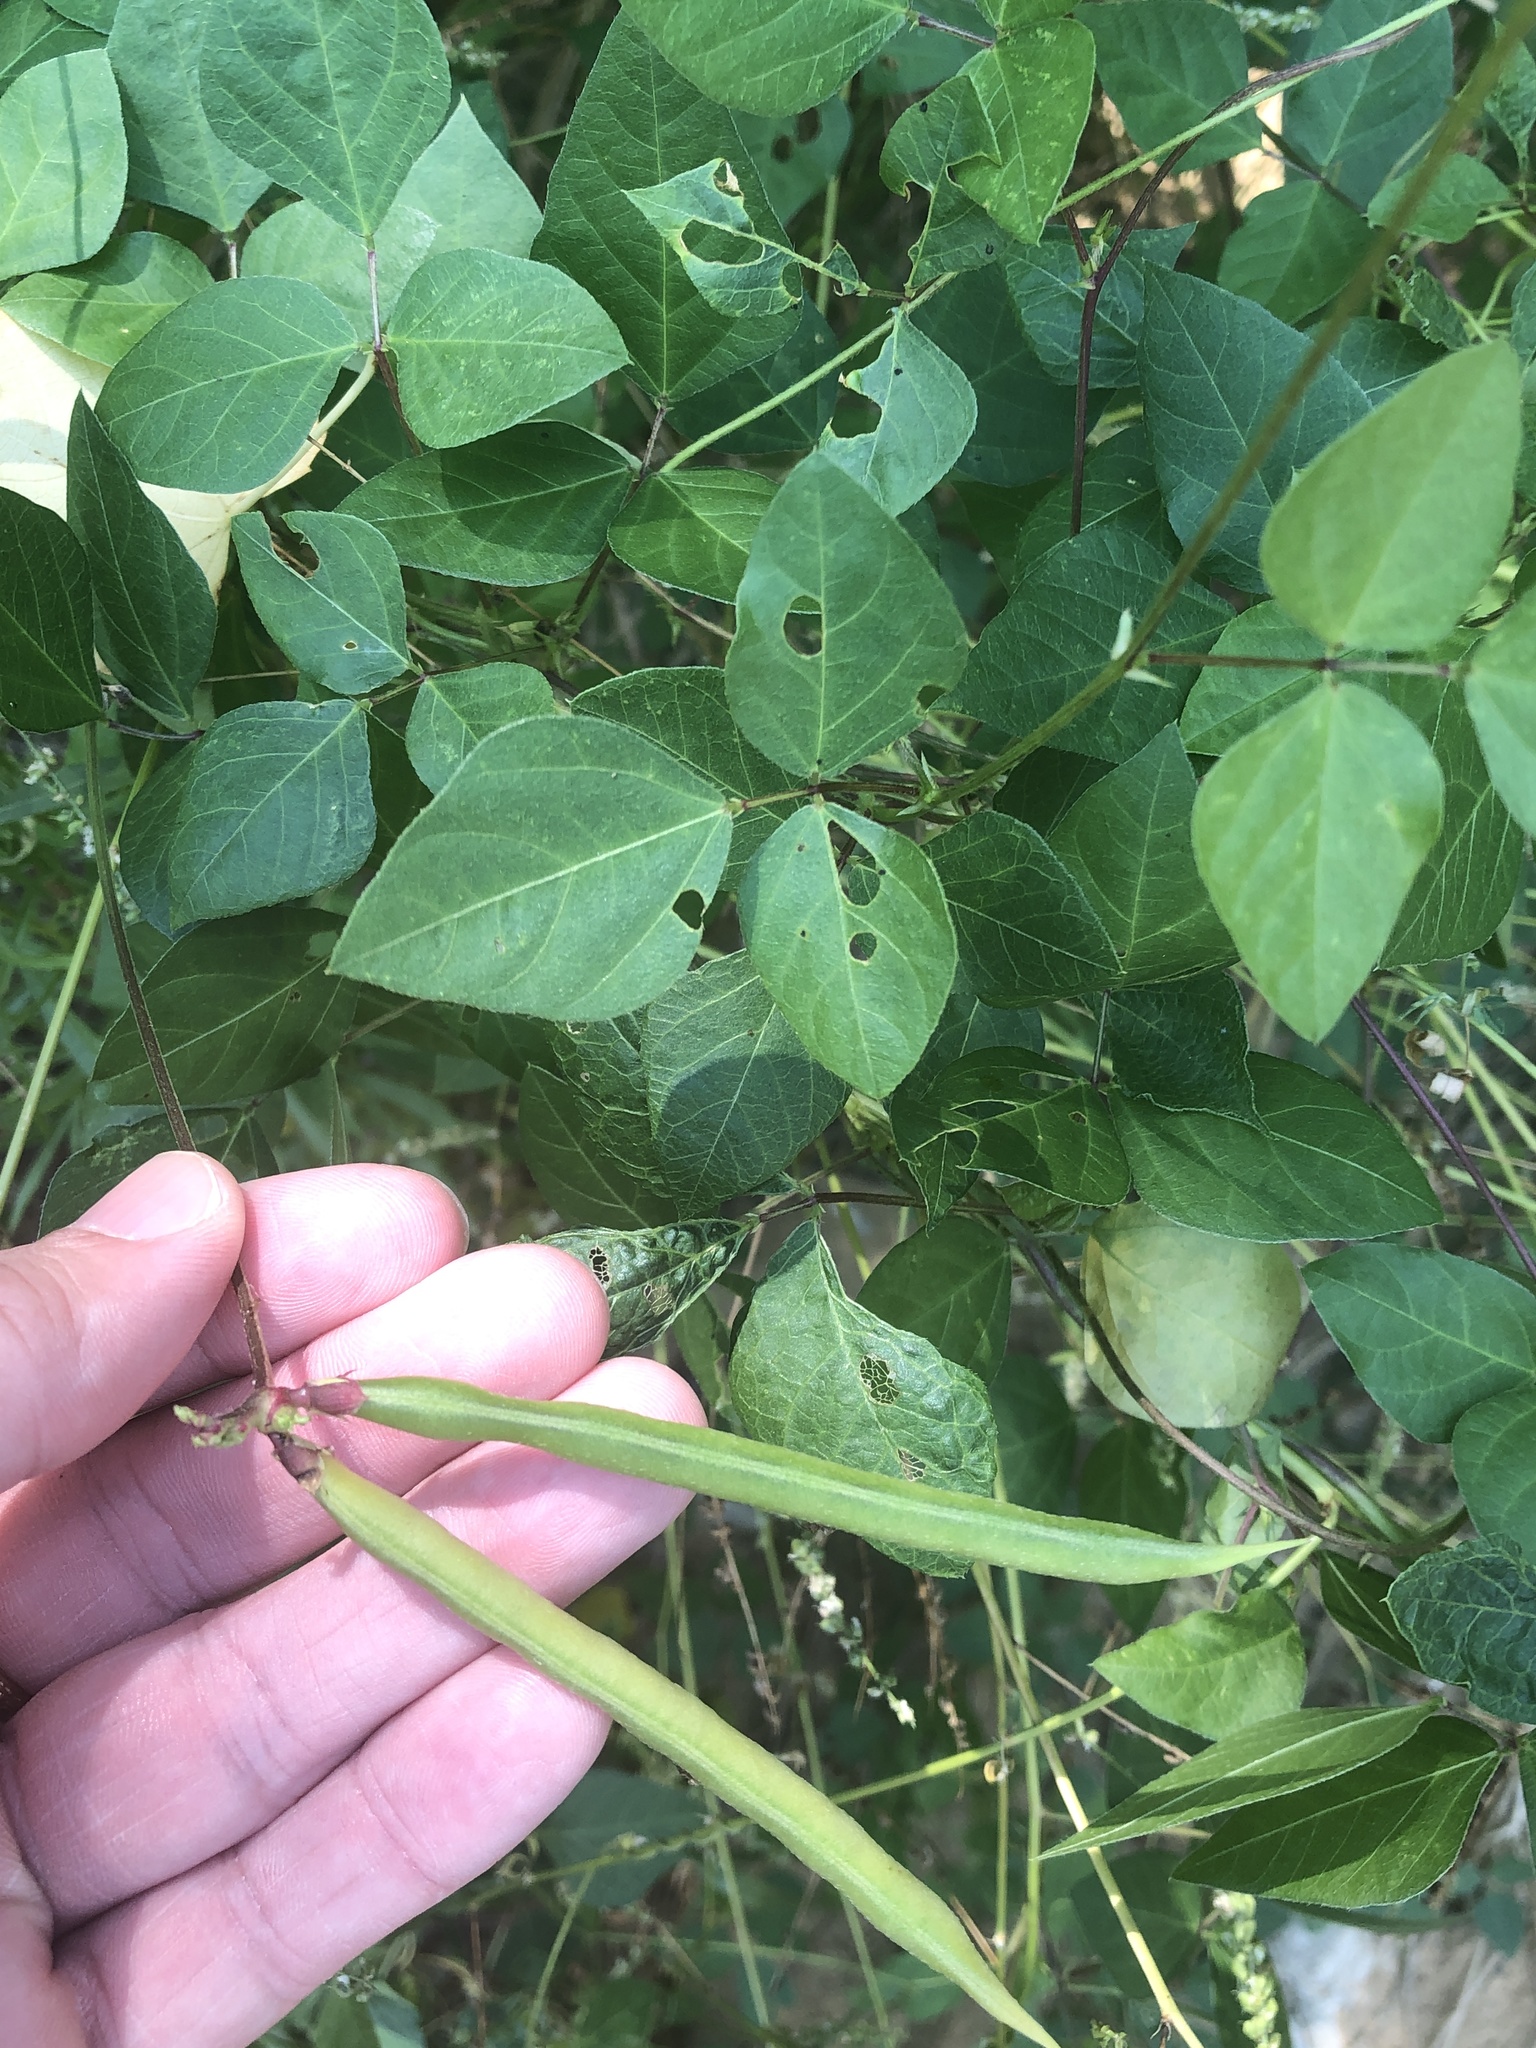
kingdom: Plantae
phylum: Tracheophyta
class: Magnoliopsida
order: Fabales
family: Fabaceae
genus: Strophostyles
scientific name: Strophostyles helvola
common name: Trailing wild bean
